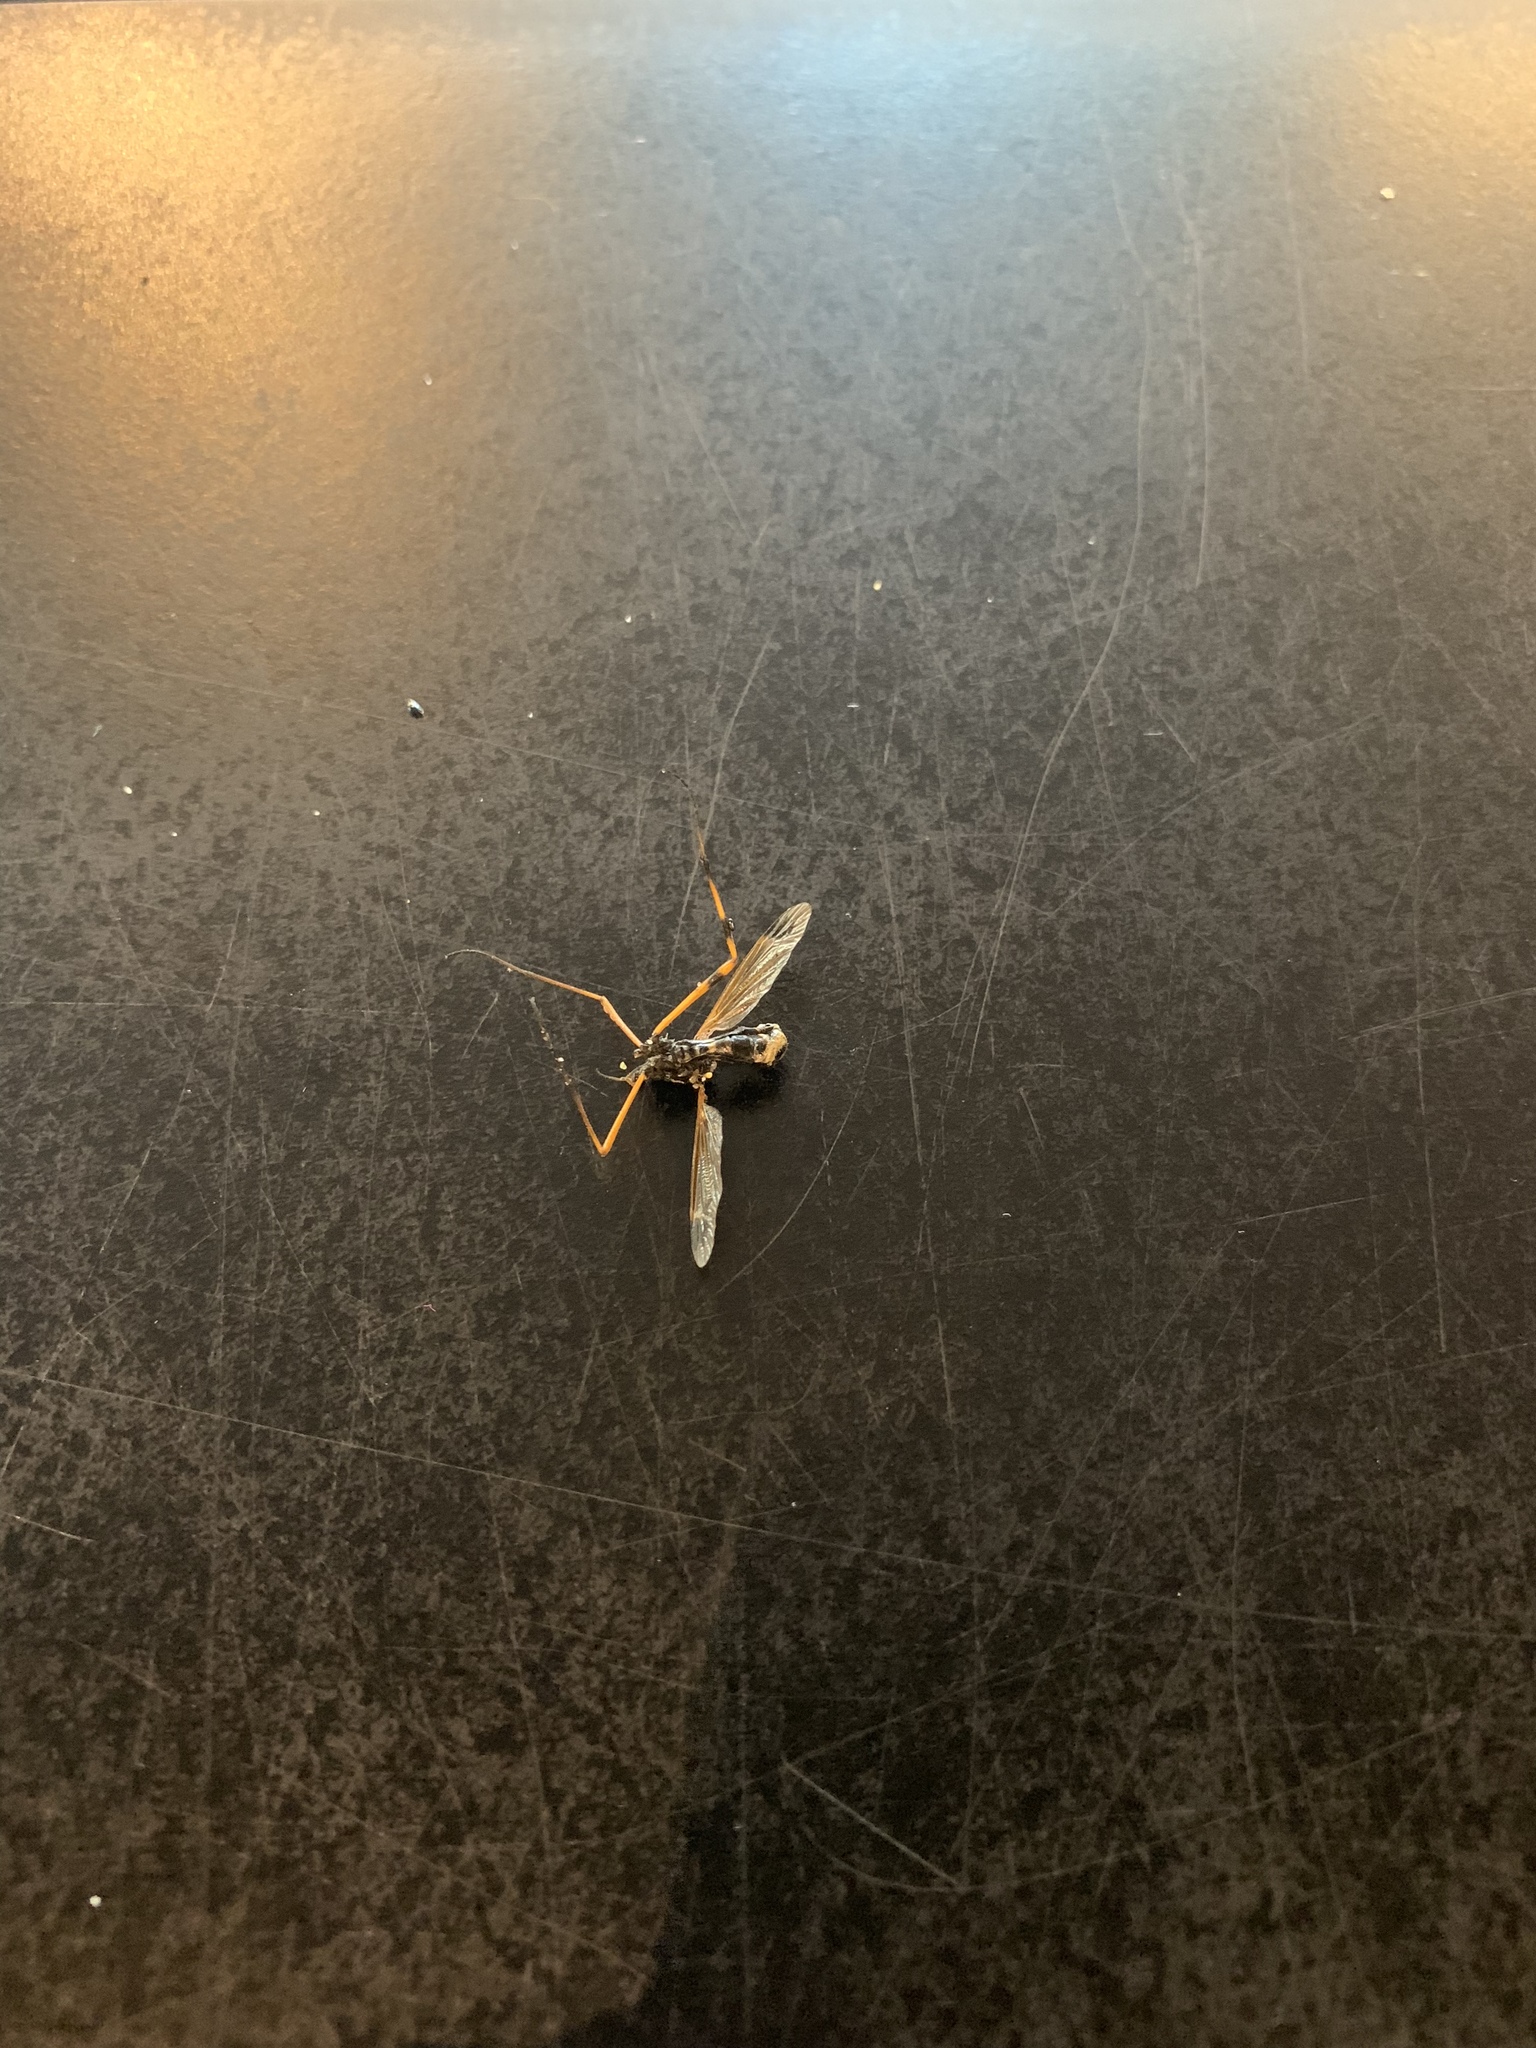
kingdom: Animalia
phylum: Arthropoda
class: Insecta
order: Diptera
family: Tipulidae
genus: Ctenophora
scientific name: Ctenophora festiva
